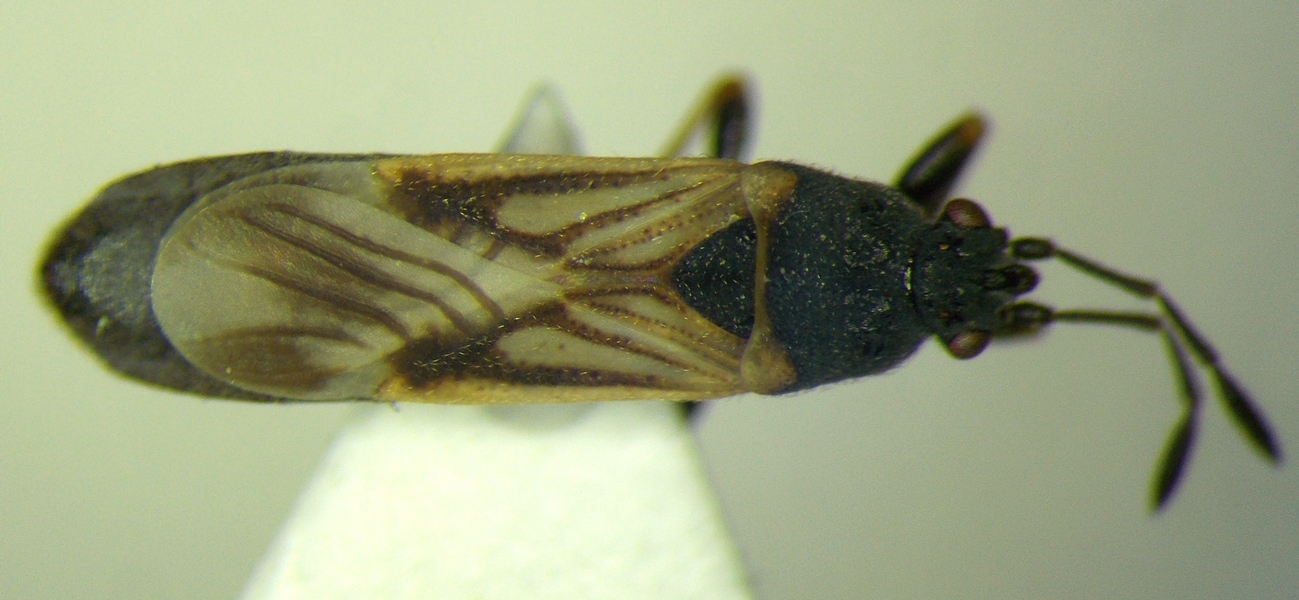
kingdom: Animalia
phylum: Arthropoda
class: Insecta
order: Hemiptera
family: Blissidae
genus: Ischnodemus
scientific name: Ischnodemus sabuleti
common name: European cinchbug
